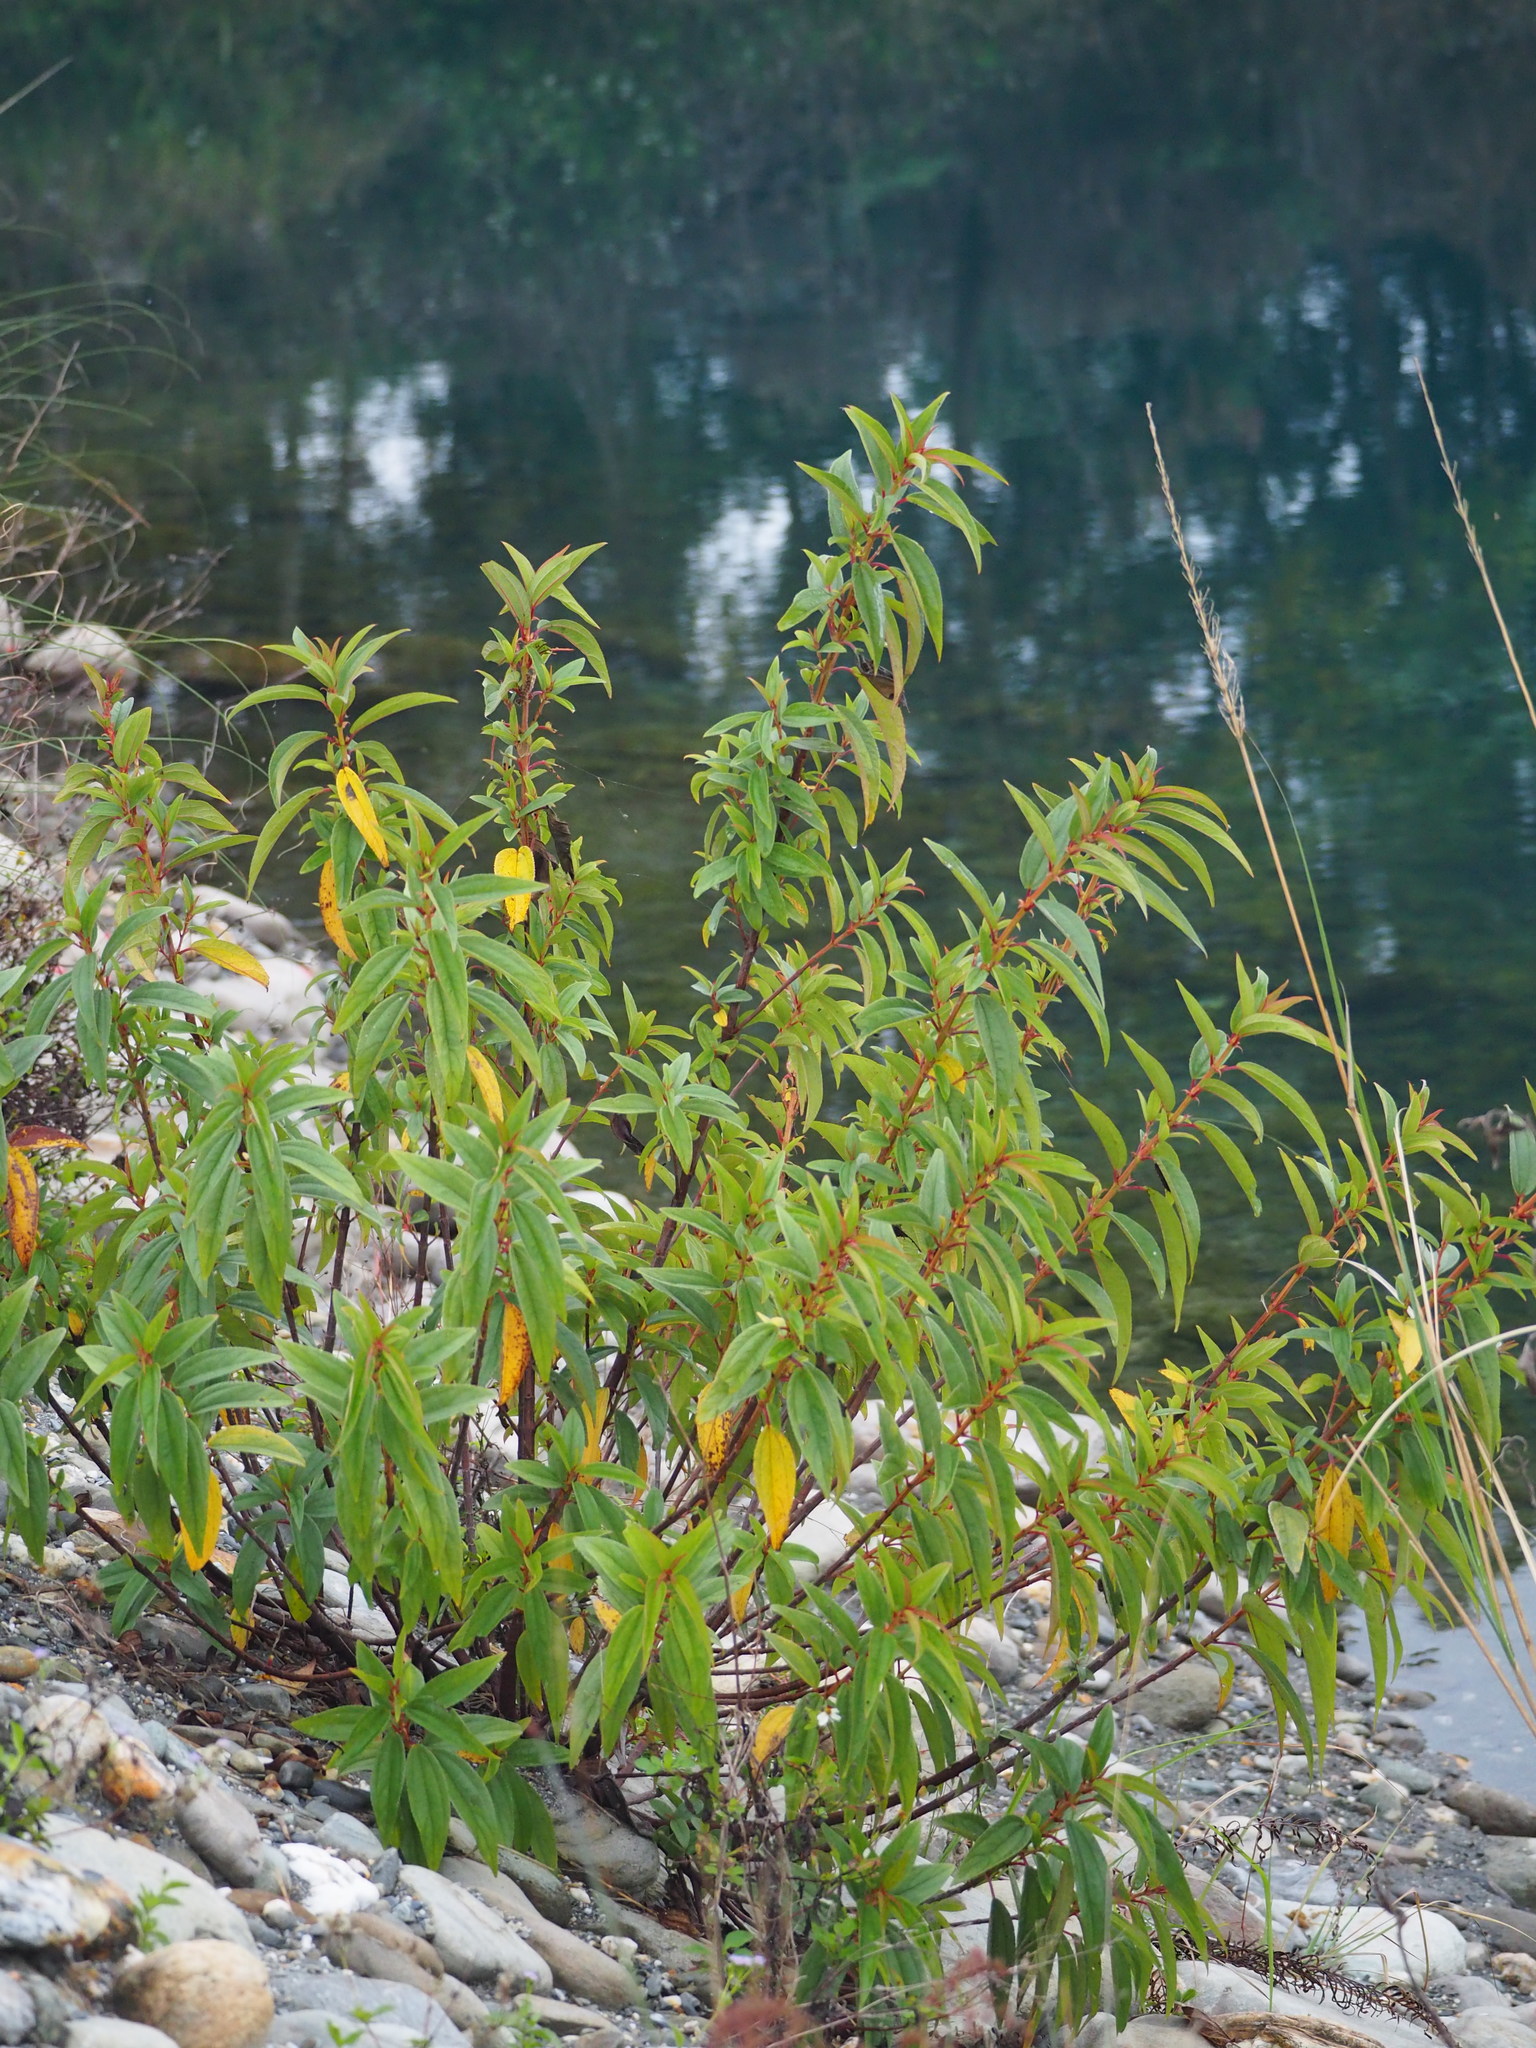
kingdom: Plantae
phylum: Tracheophyta
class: Magnoliopsida
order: Rosales
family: Urticaceae
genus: Boehmeria
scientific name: Boehmeria densiflora
